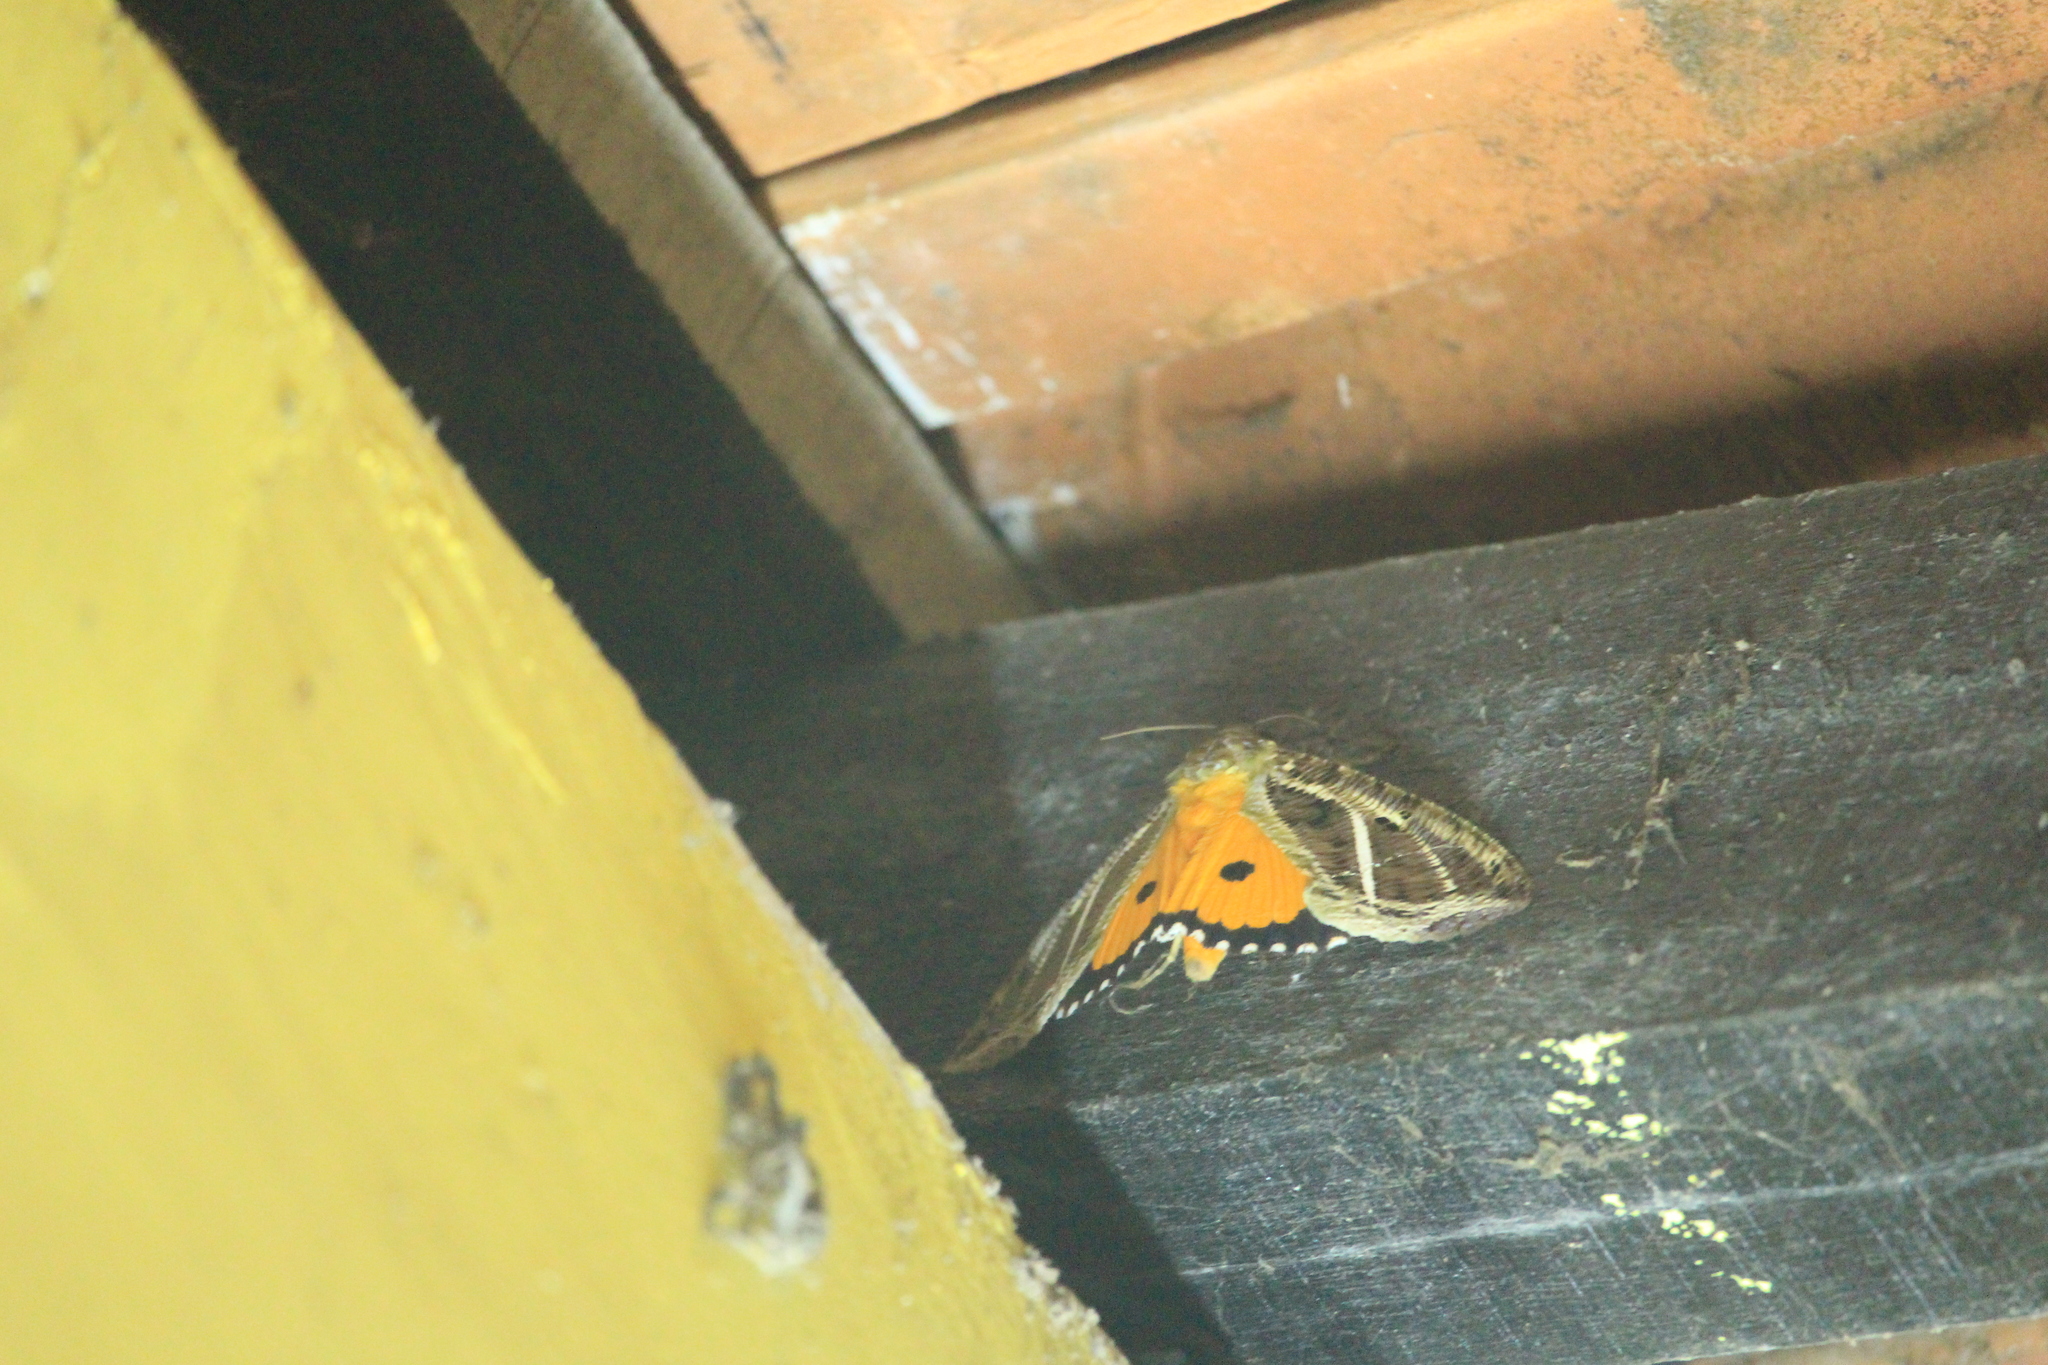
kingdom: Animalia
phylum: Arthropoda
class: Insecta
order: Lepidoptera
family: Erebidae
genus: Eudocima
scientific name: Eudocima materna
